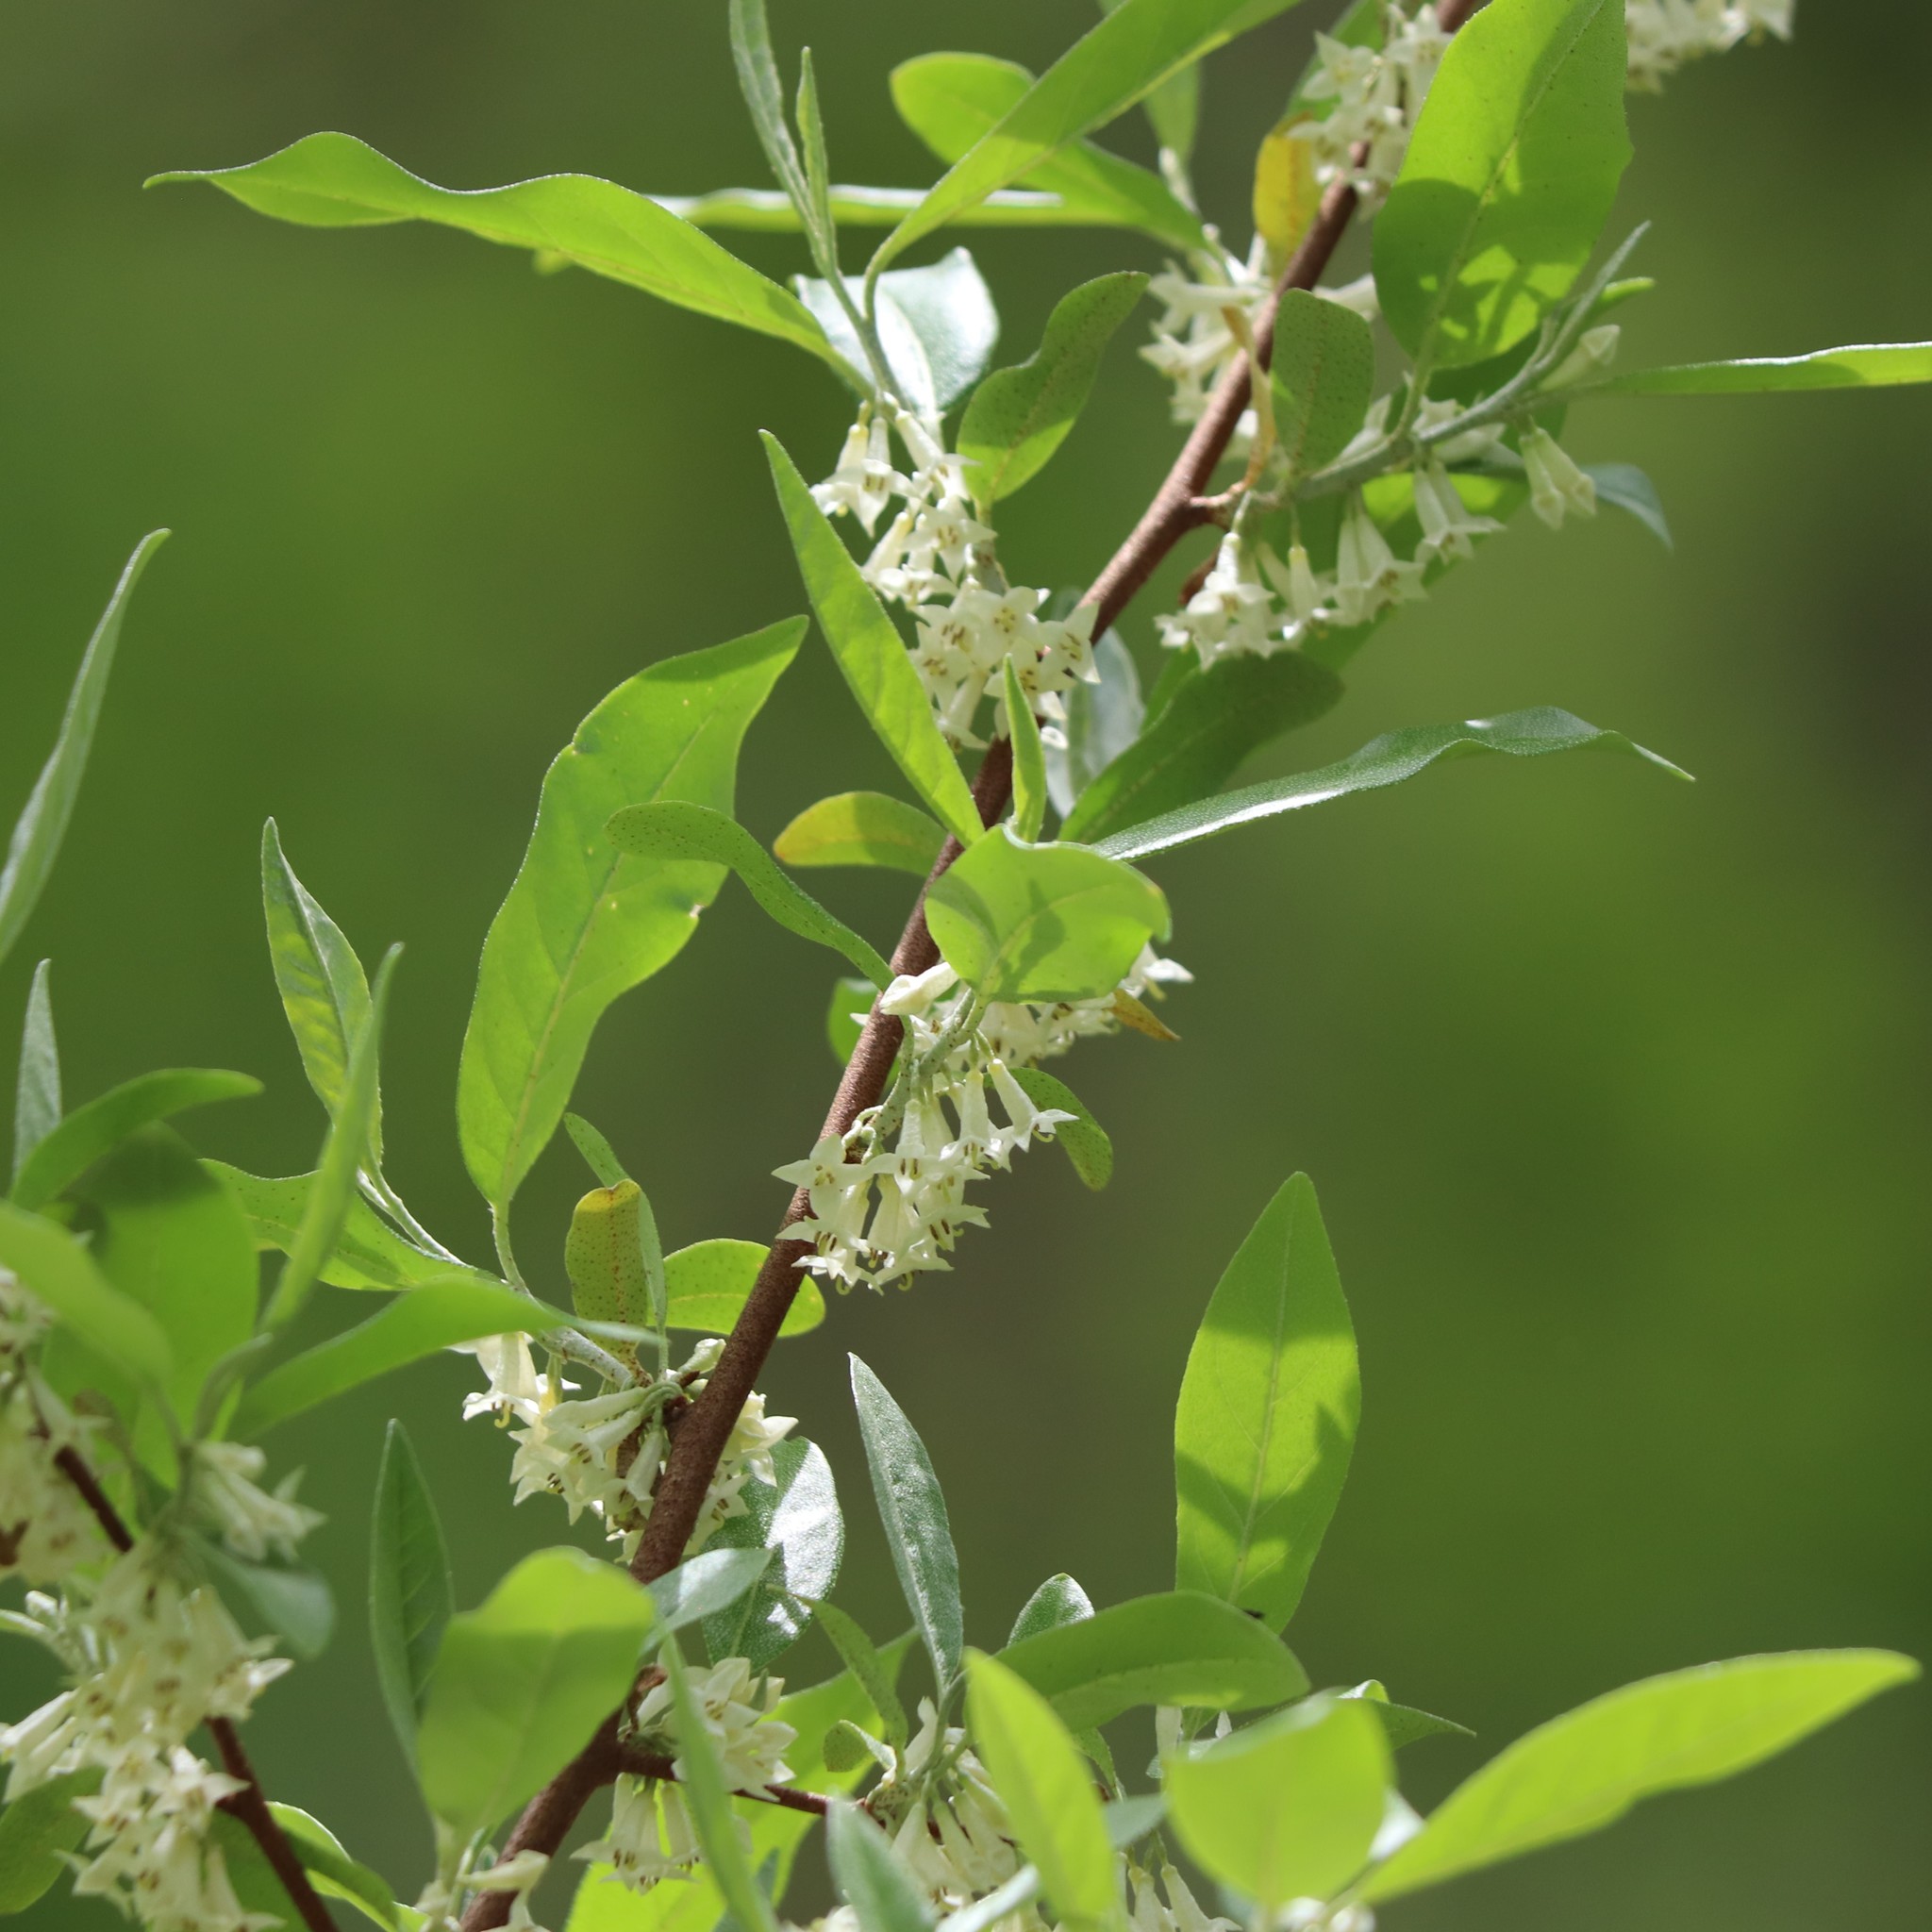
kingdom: Plantae
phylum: Tracheophyta
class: Magnoliopsida
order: Rosales
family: Elaeagnaceae
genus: Elaeagnus
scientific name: Elaeagnus umbellata
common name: Autumn olive
